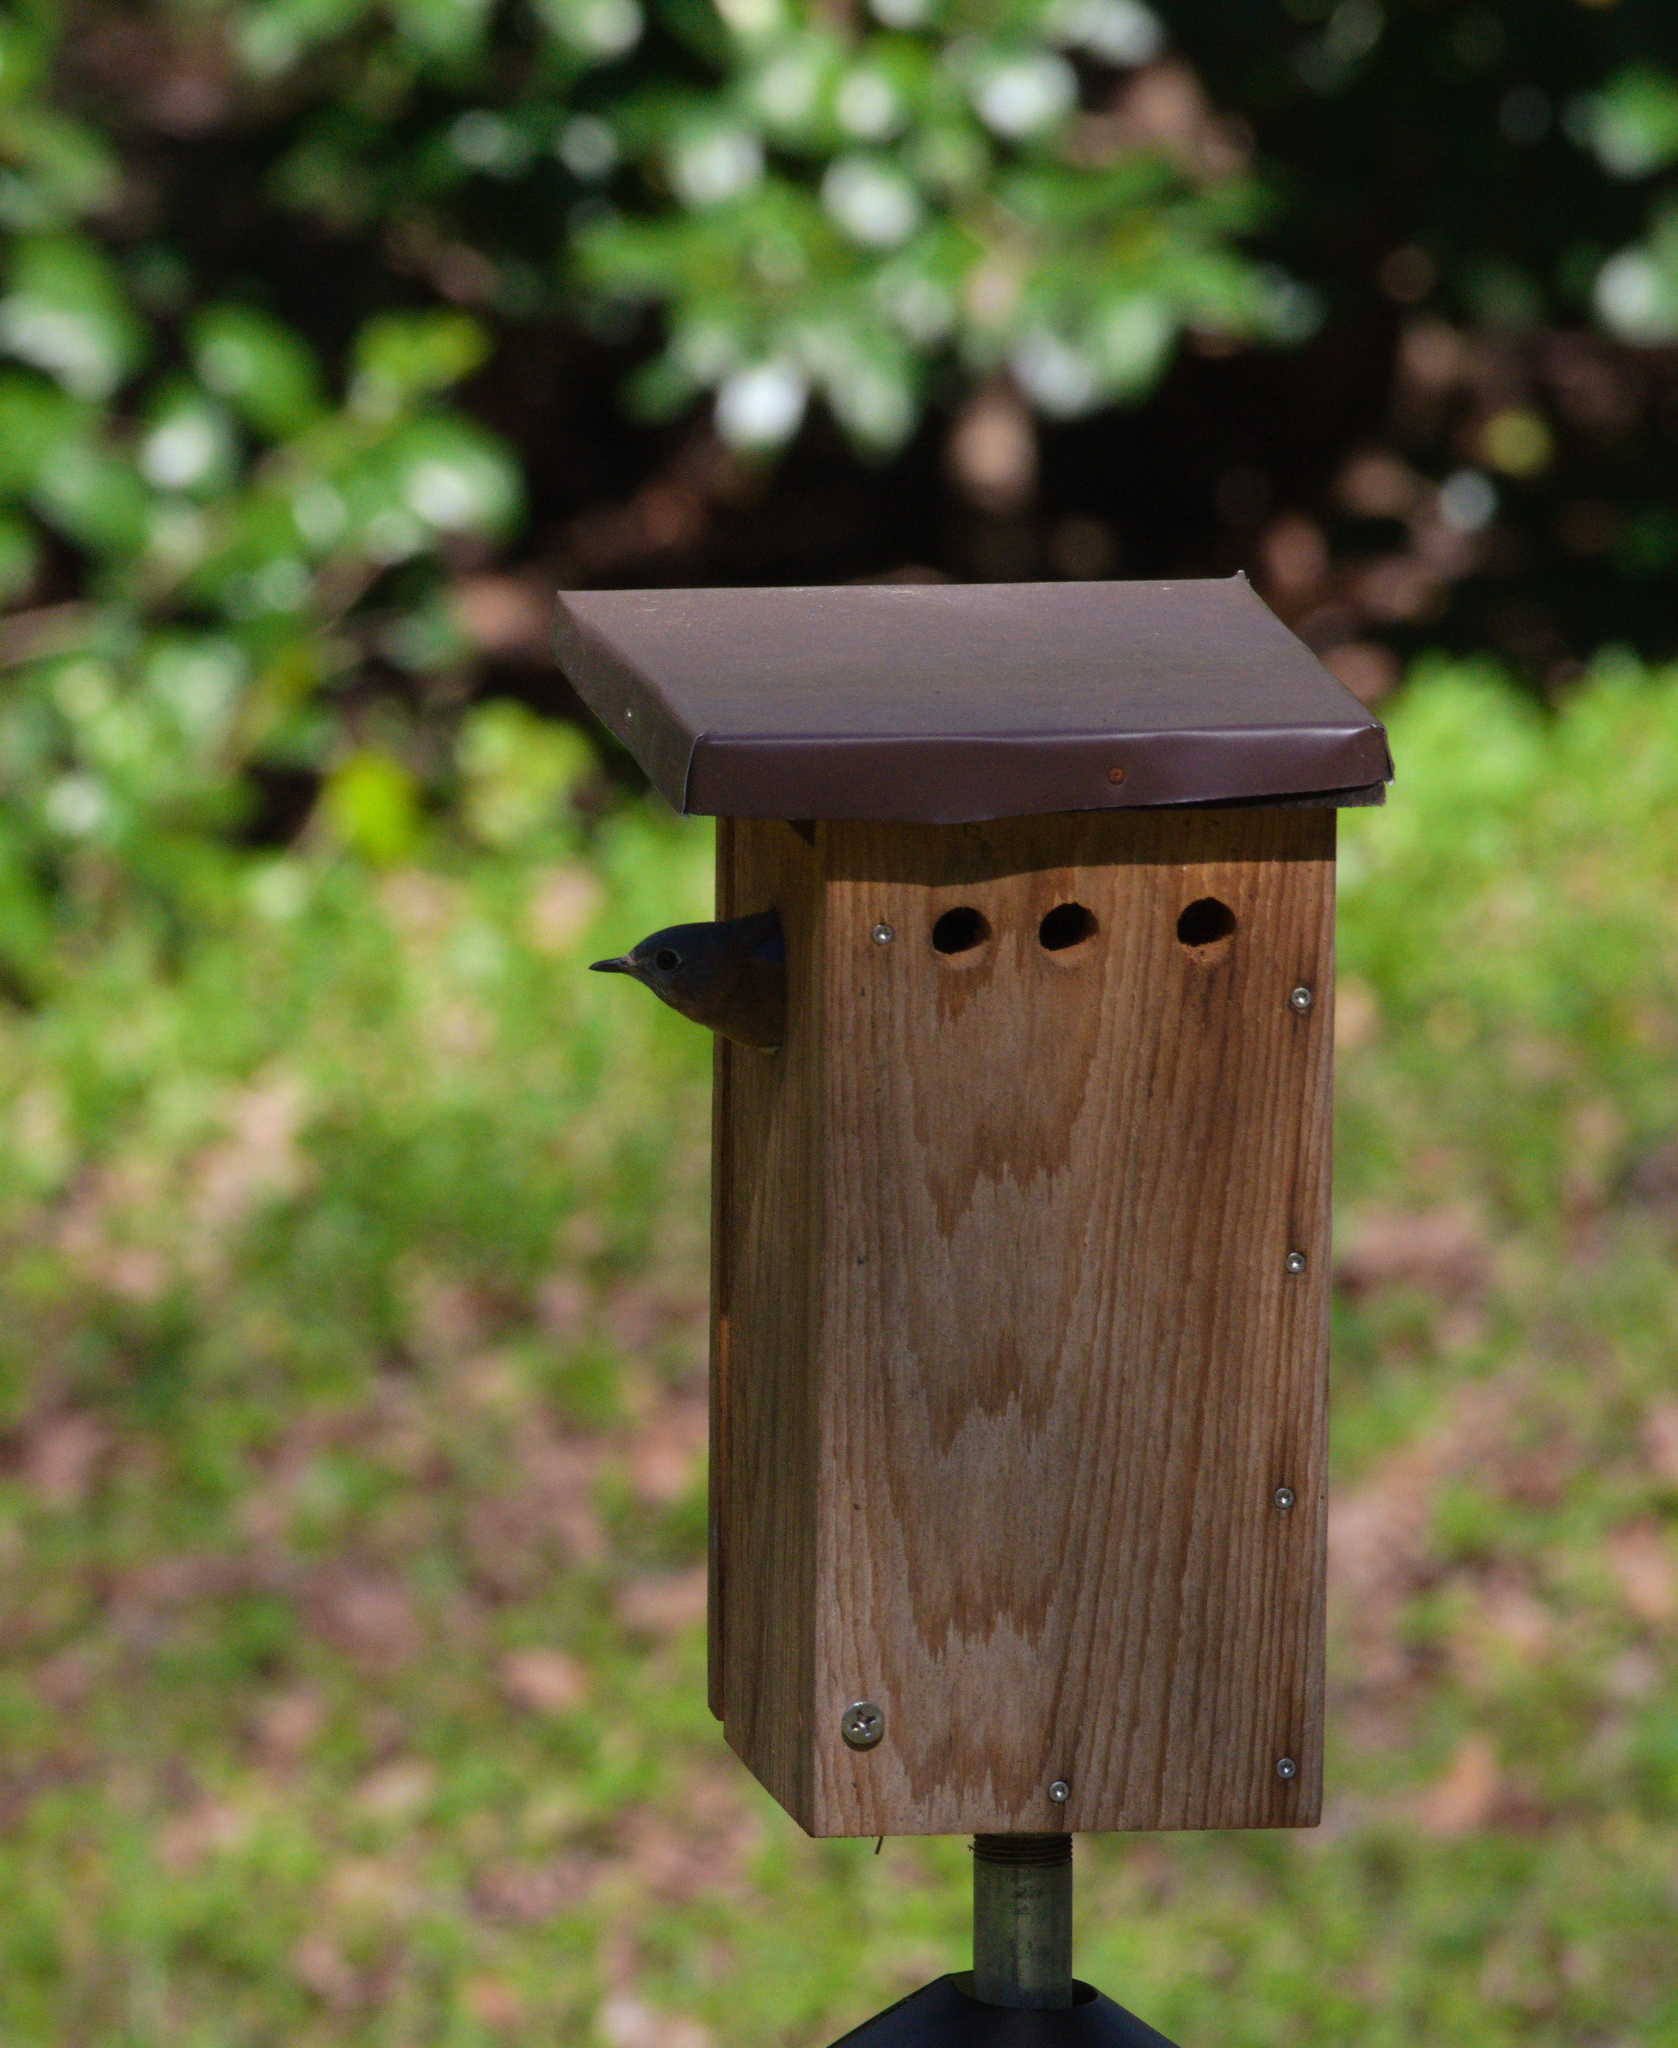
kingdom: Animalia
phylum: Chordata
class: Aves
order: Passeriformes
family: Turdidae
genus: Sialia
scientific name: Sialia sialis
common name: Eastern bluebird
